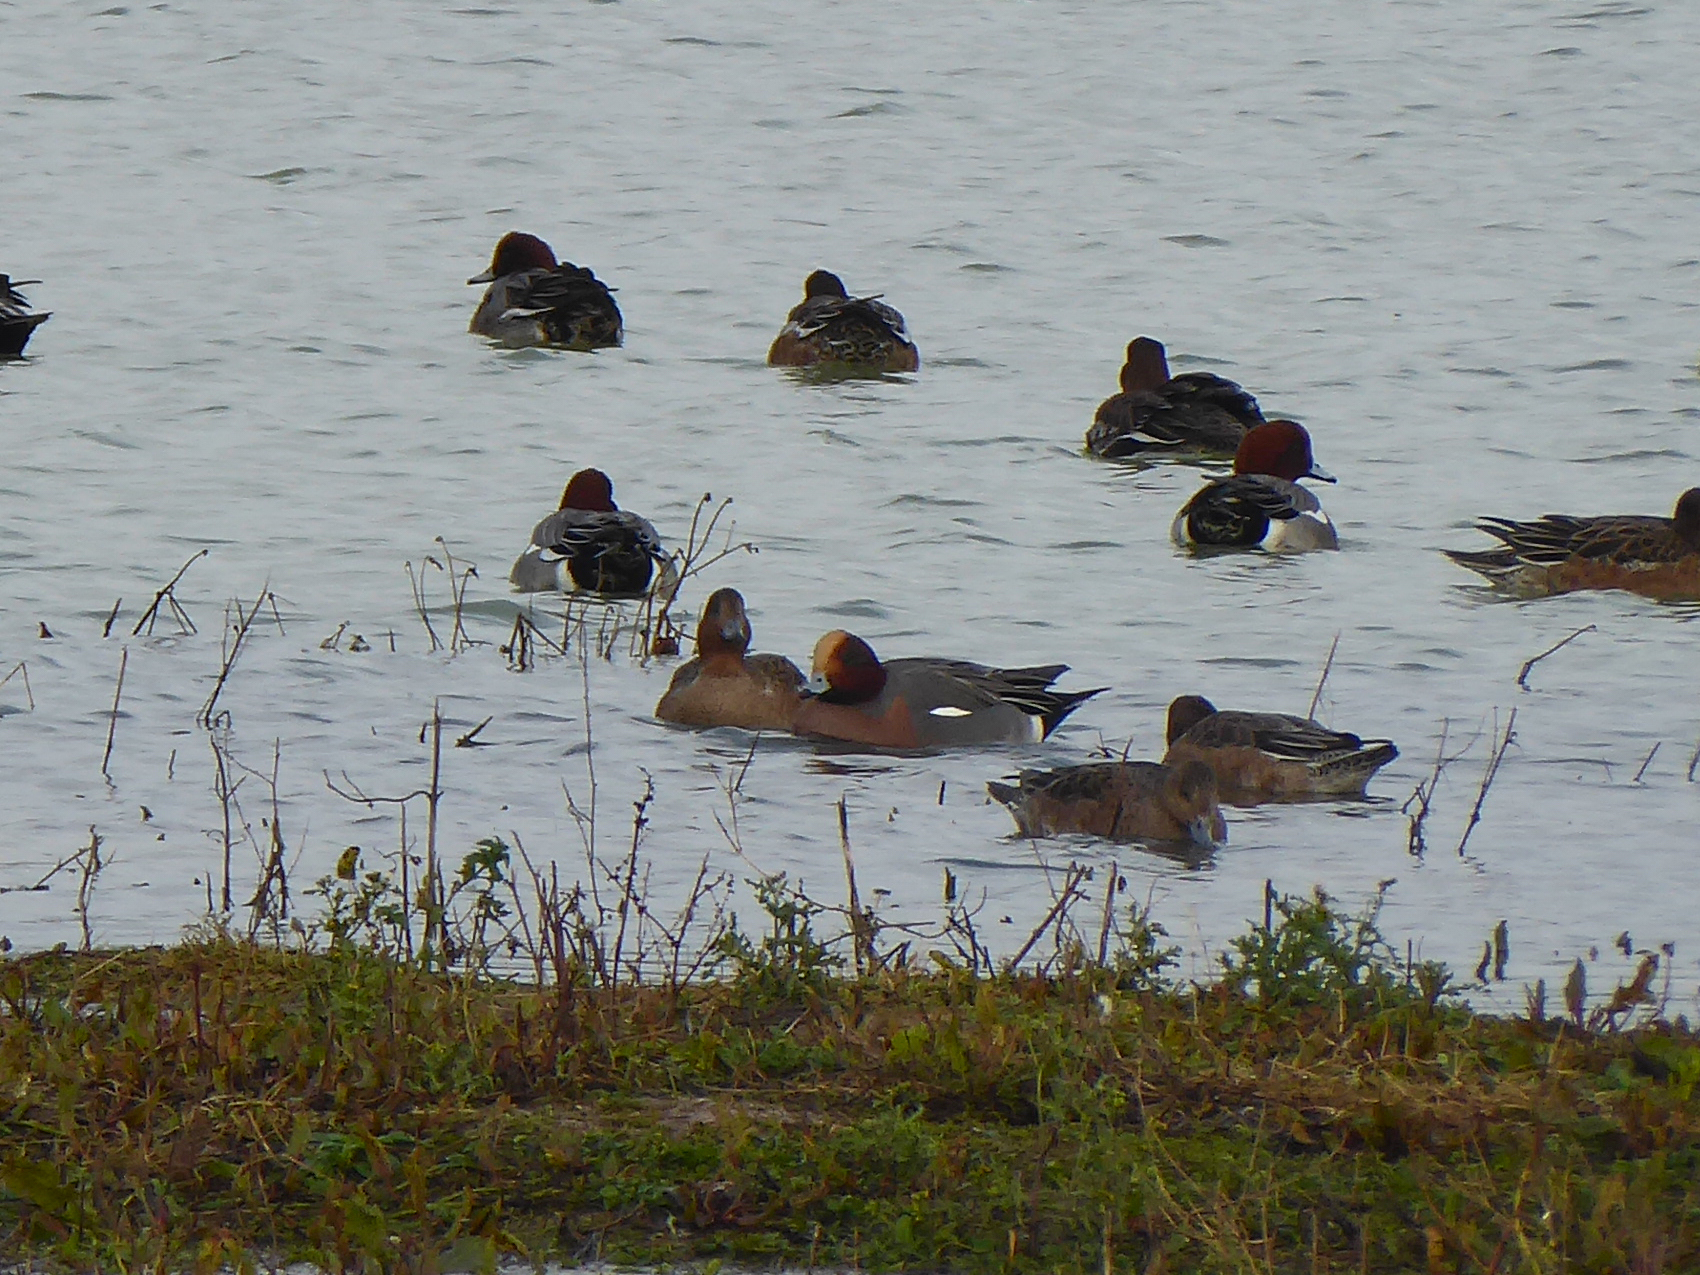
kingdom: Animalia
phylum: Chordata
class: Aves
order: Anseriformes
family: Anatidae
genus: Mareca
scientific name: Mareca penelope
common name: Eurasian wigeon
